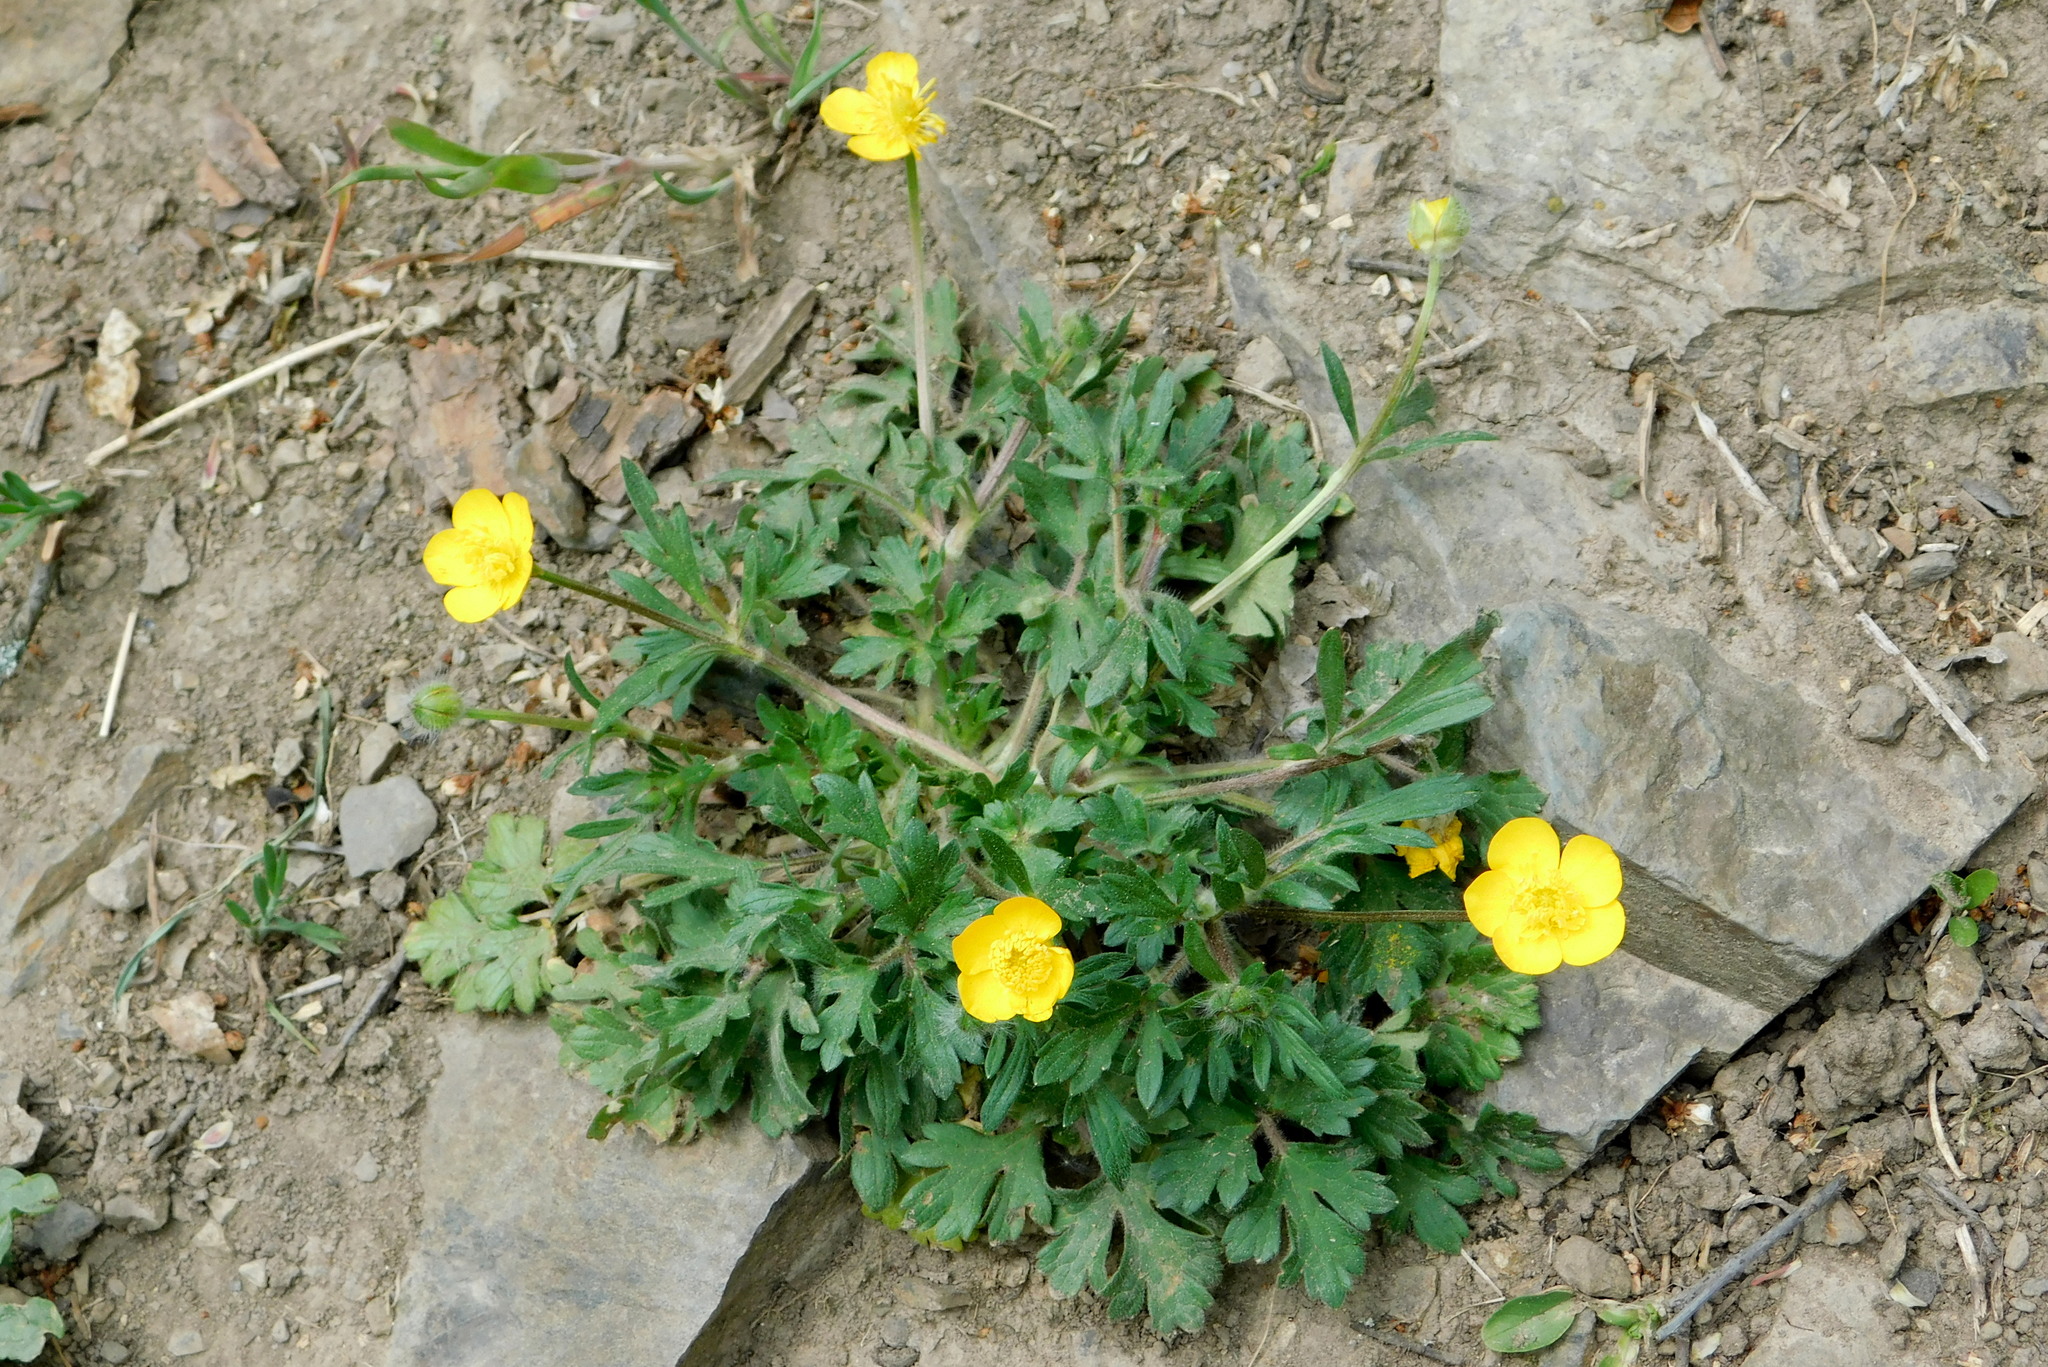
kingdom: Plantae
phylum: Tracheophyta
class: Magnoliopsida
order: Ranunculales
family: Ranunculaceae
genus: Ranunculus
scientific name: Ranunculus bulbosus
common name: Bulbous buttercup
